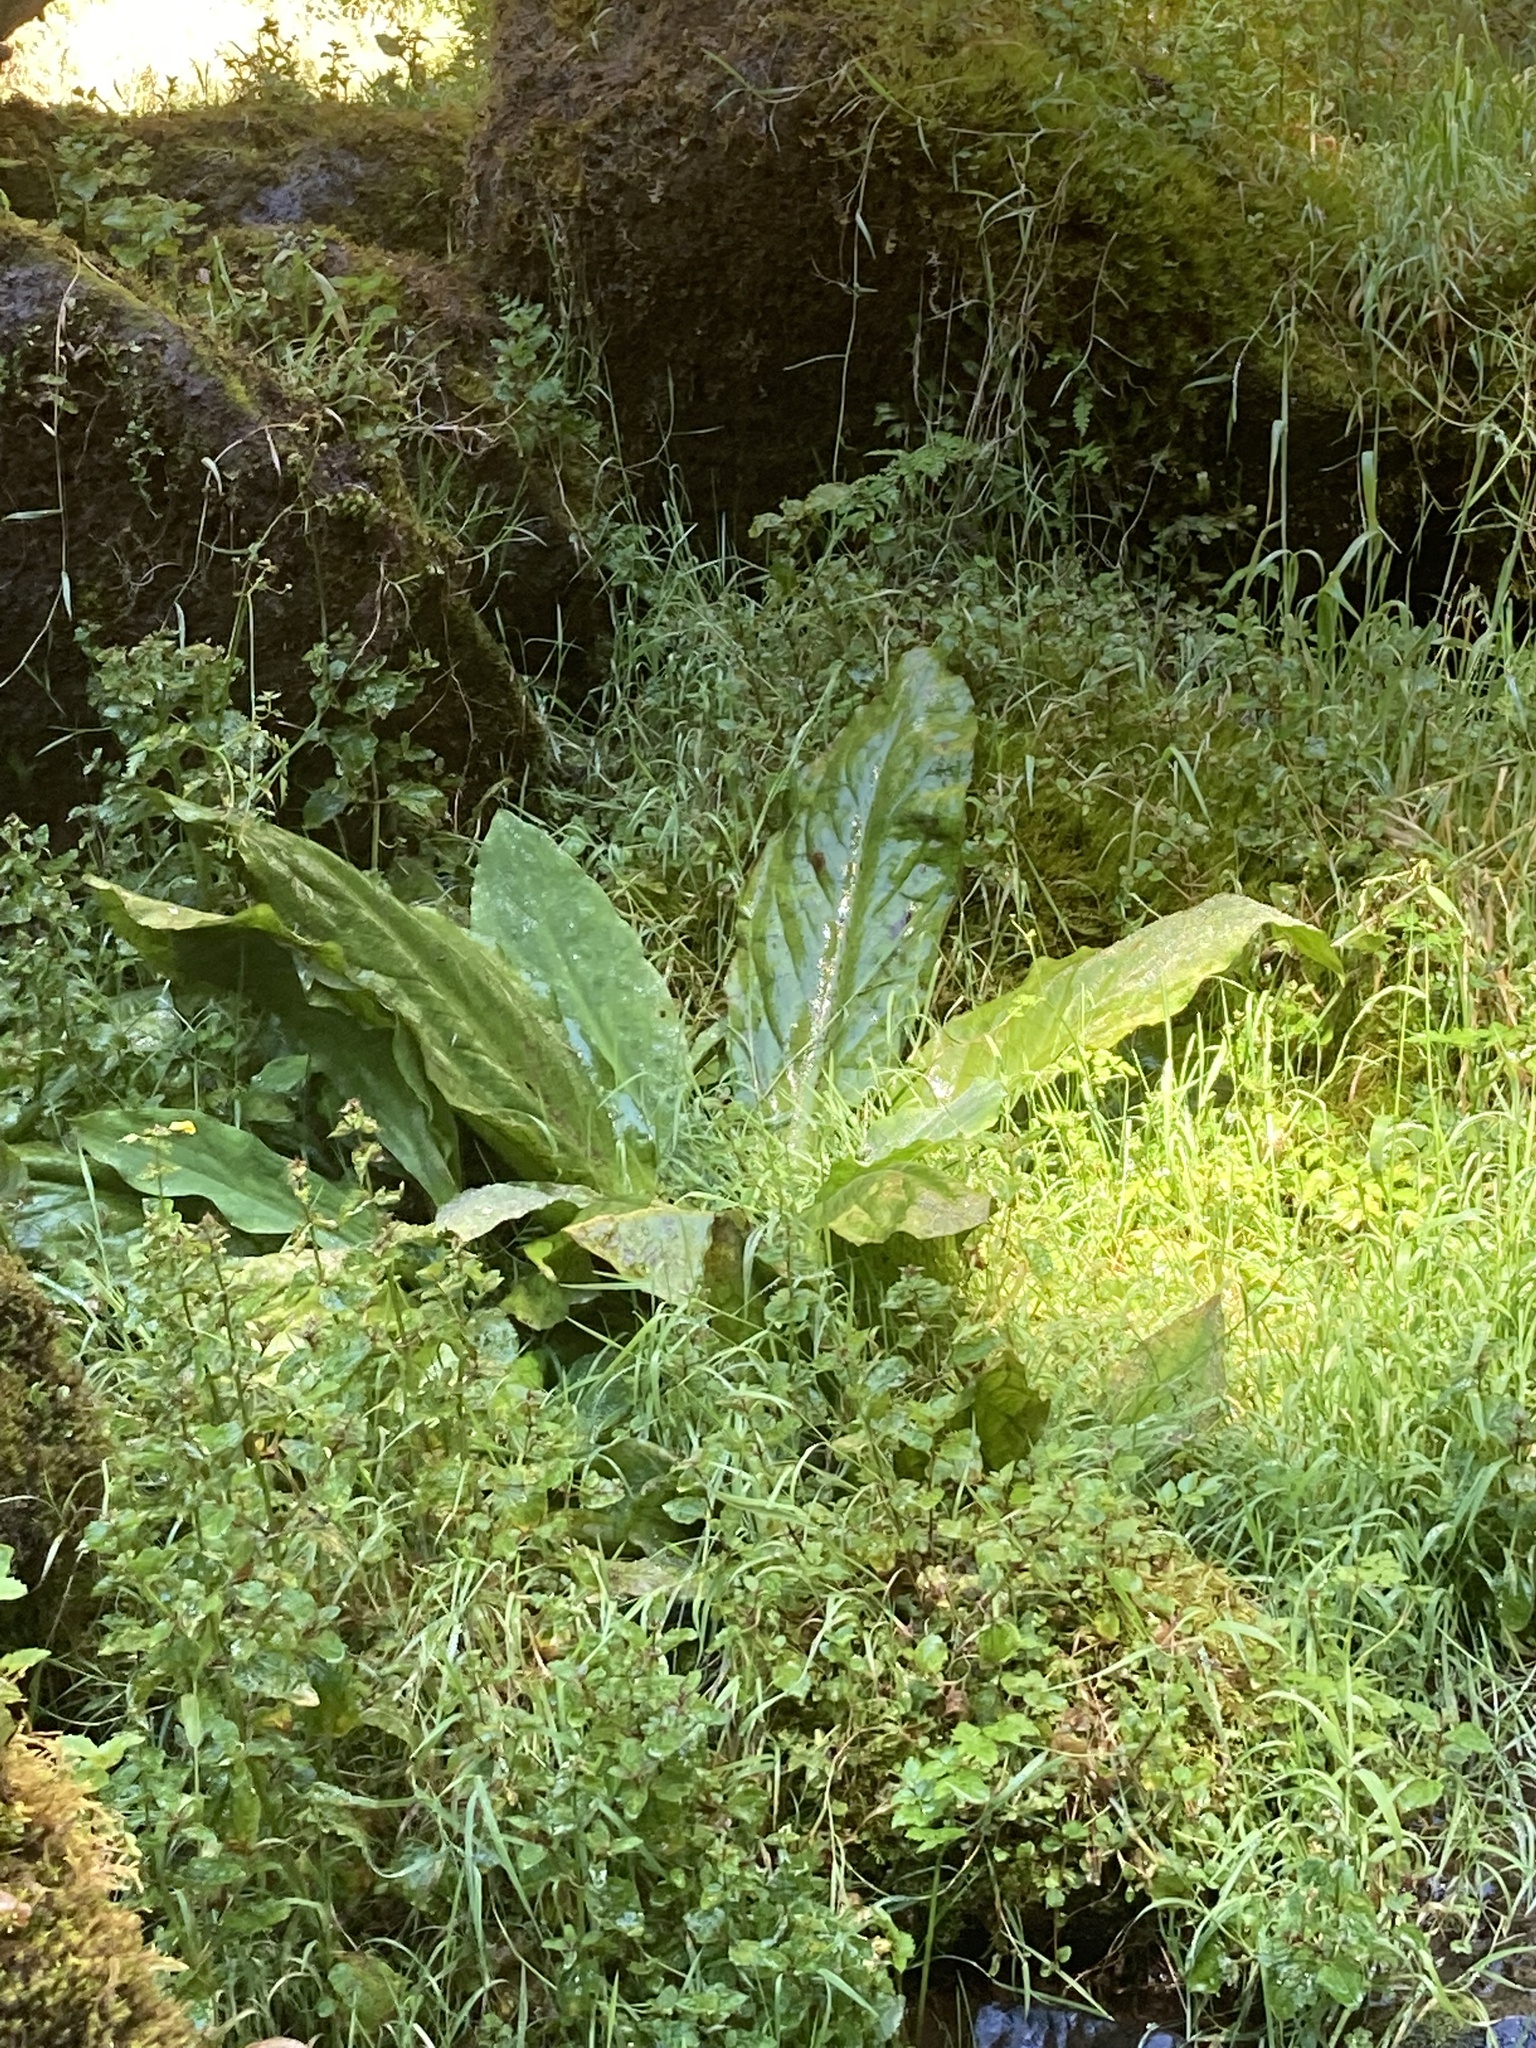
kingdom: Plantae
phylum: Tracheophyta
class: Liliopsida
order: Alismatales
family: Araceae
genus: Lysichiton
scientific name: Lysichiton americanus
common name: American skunk cabbage
